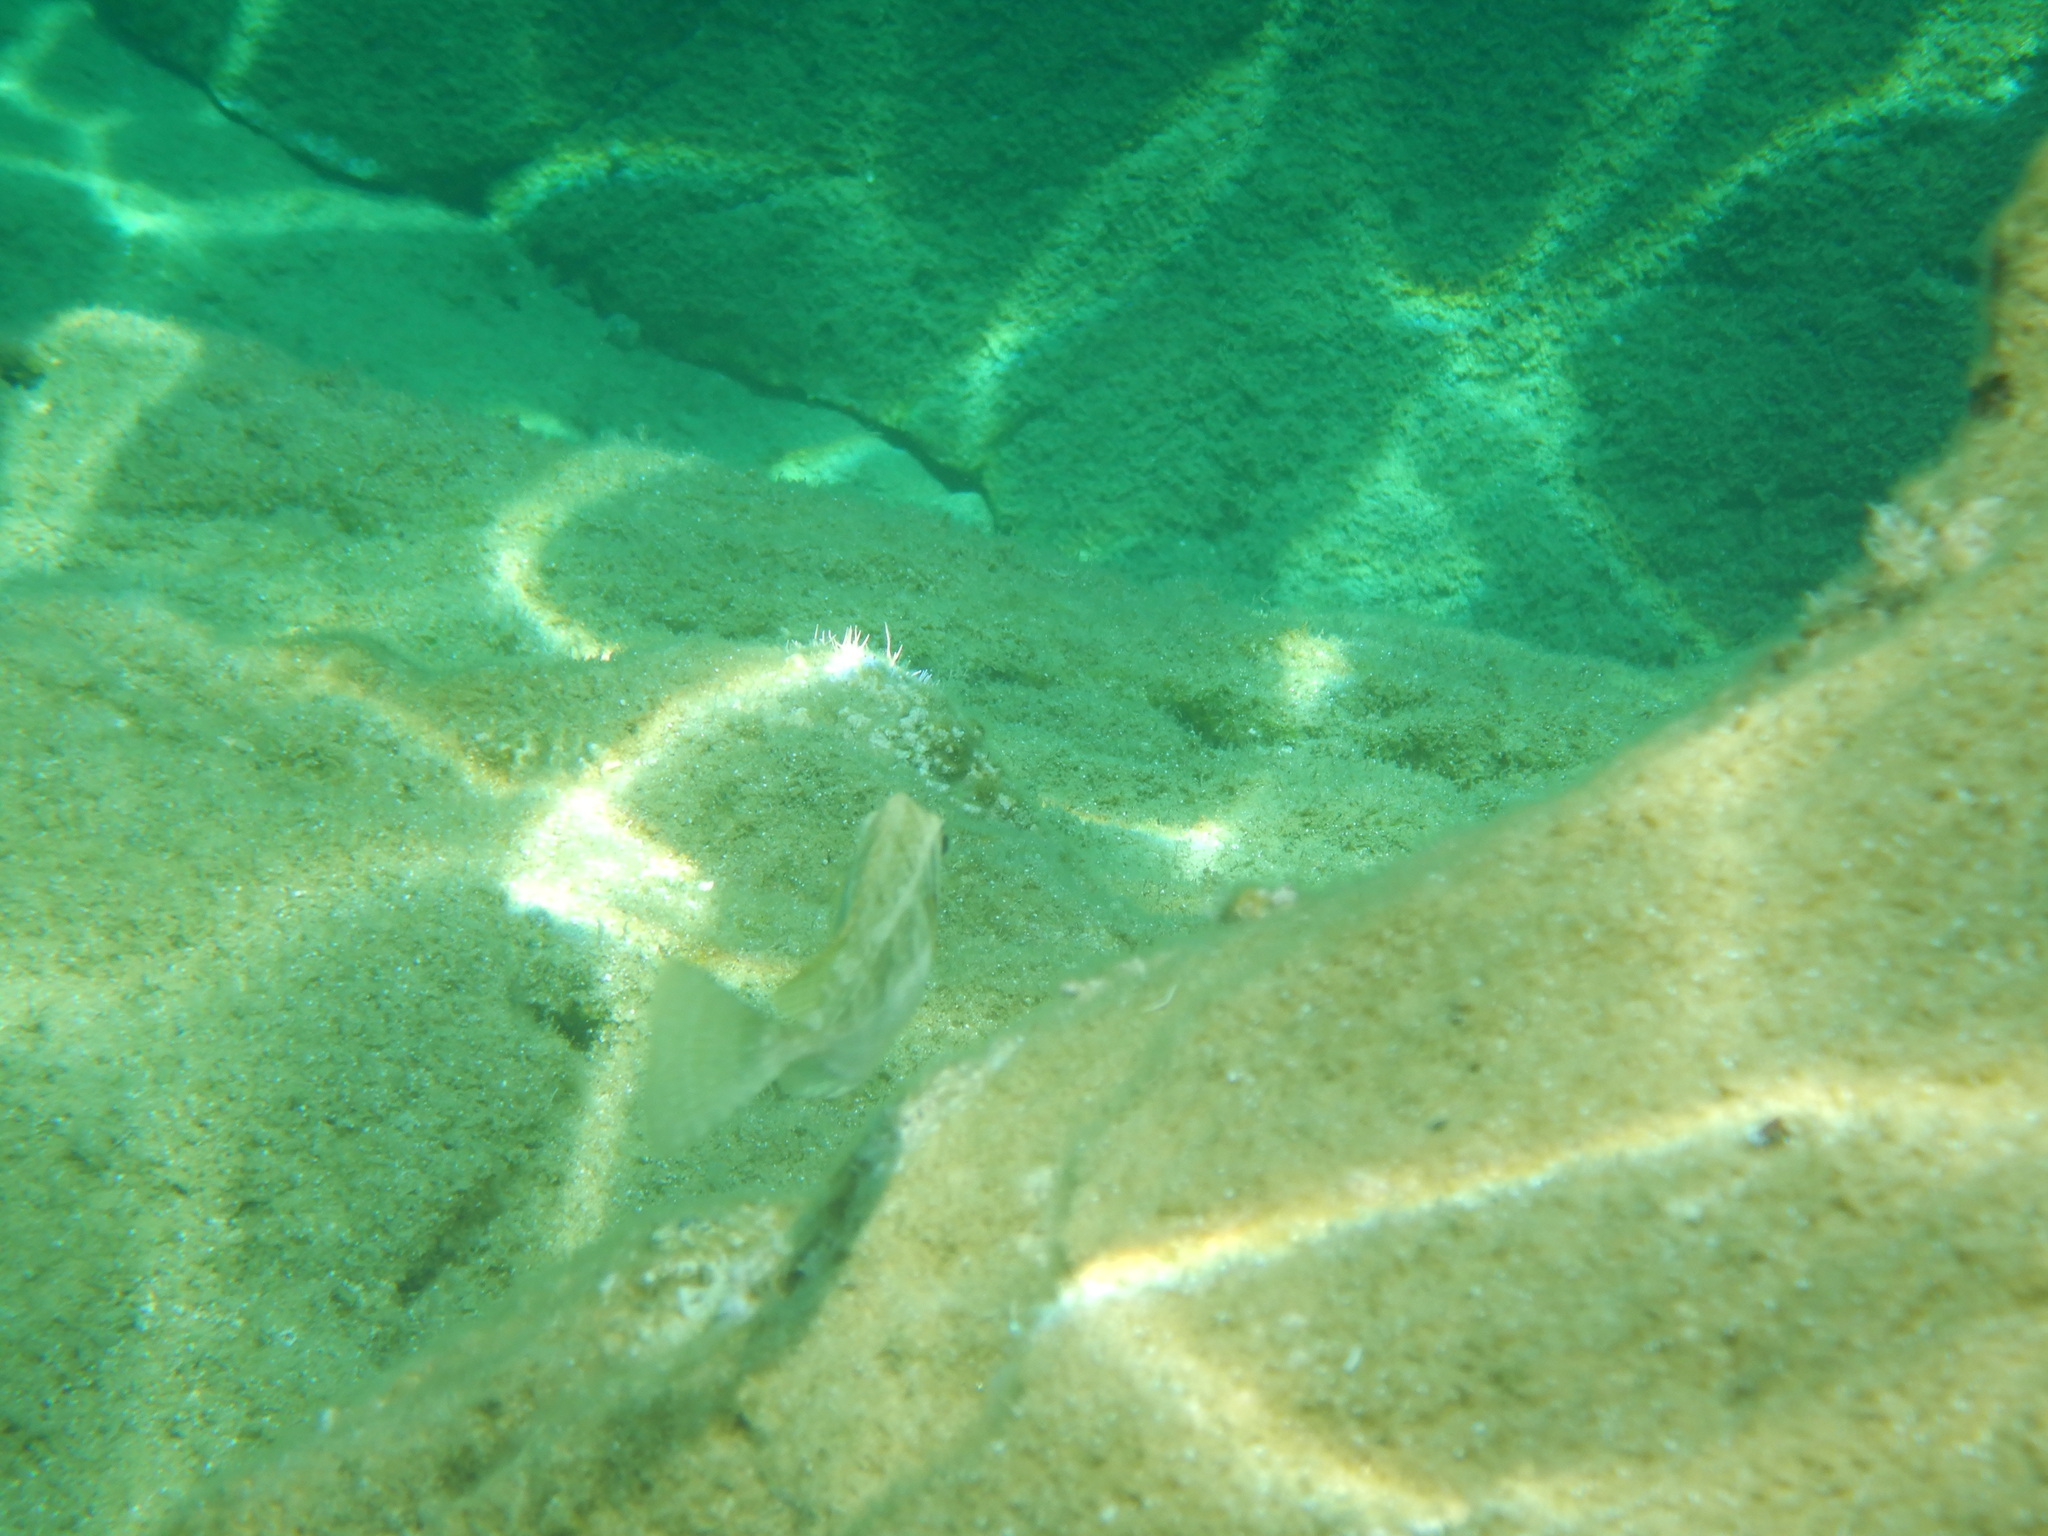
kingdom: Animalia
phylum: Chordata
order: Perciformes
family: Siganidae
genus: Siganus
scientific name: Siganus luridus
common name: Dusky spinefoot
